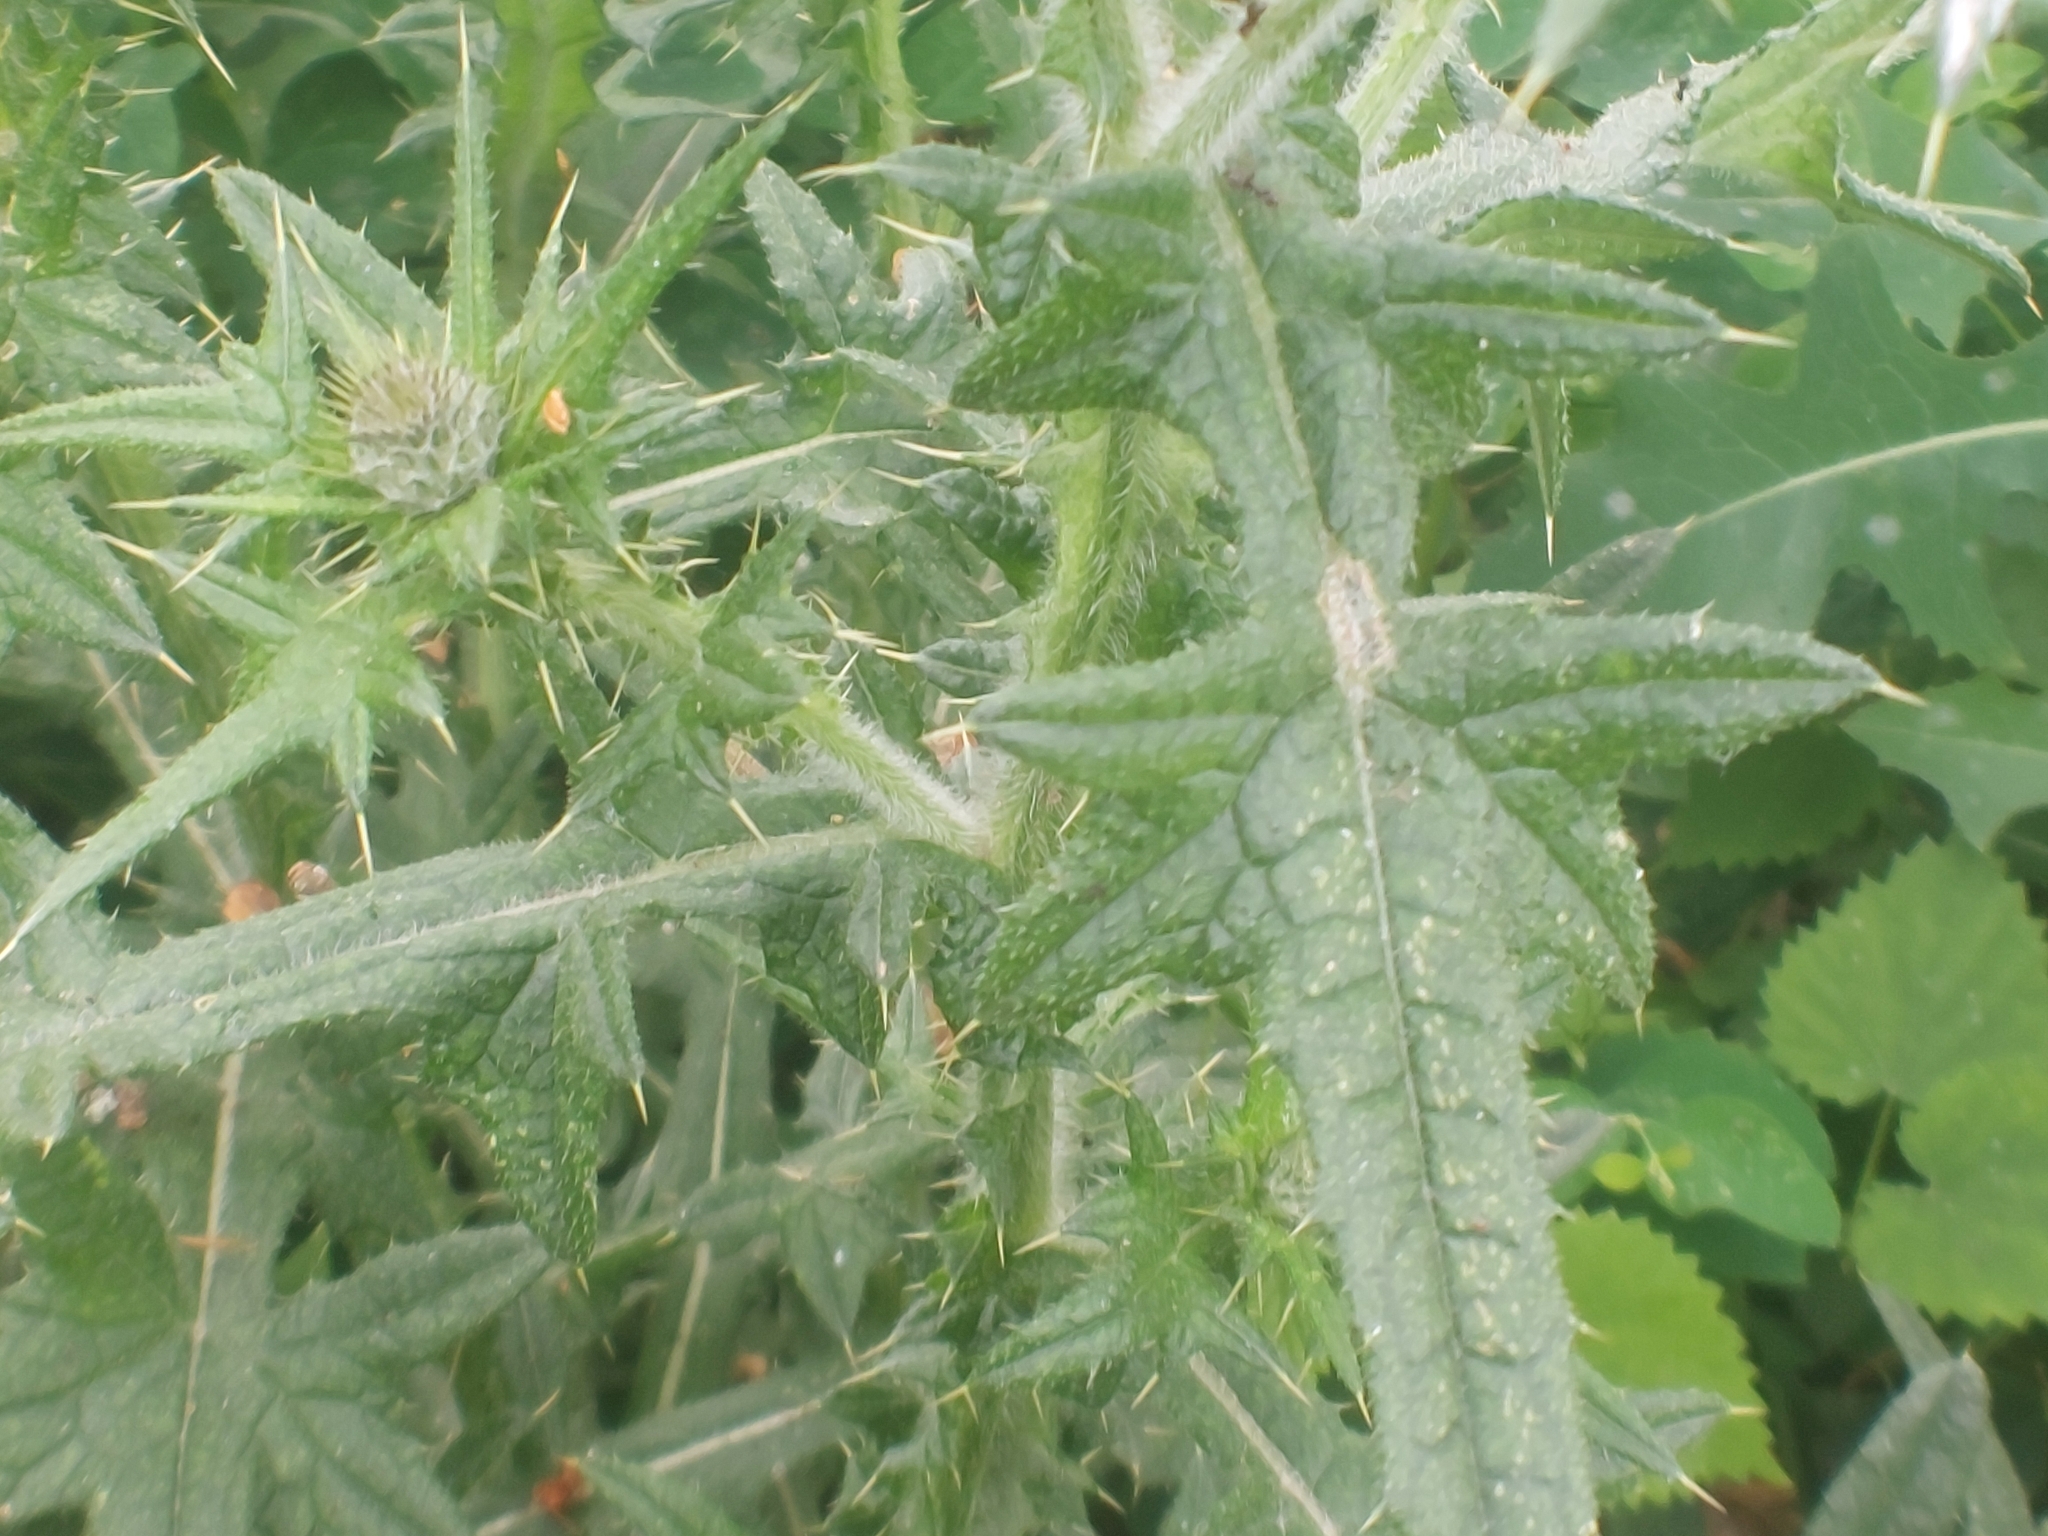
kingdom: Plantae
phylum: Tracheophyta
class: Magnoliopsida
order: Asterales
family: Asteraceae
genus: Cirsium
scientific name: Cirsium vulgare
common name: Bull thistle
